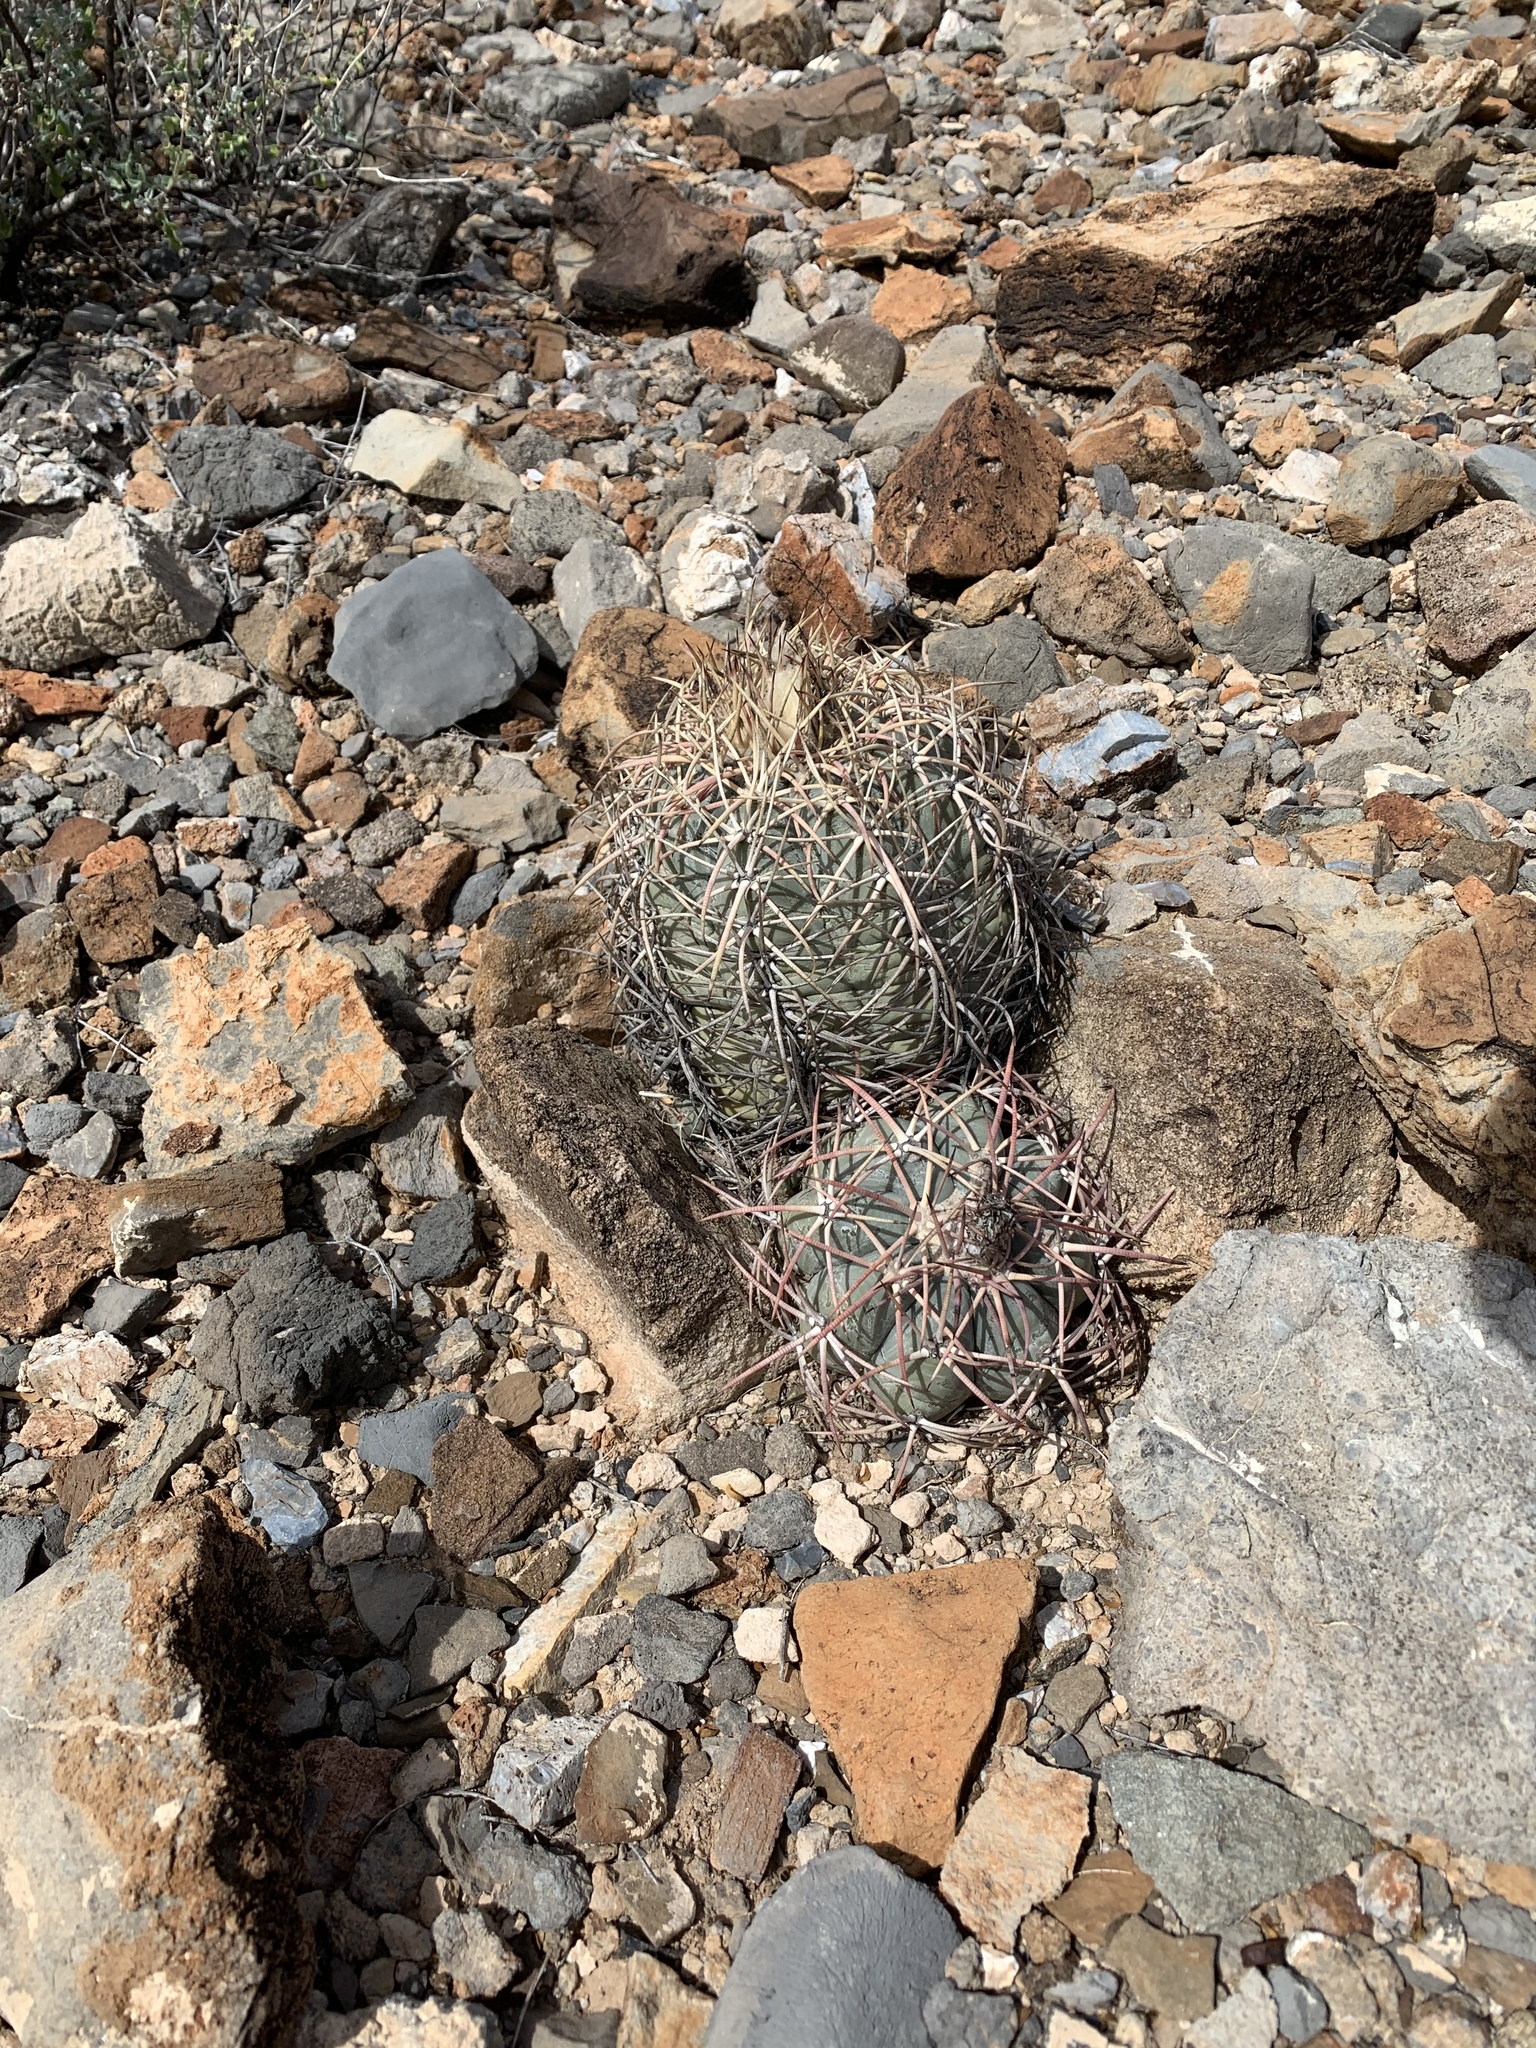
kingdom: Plantae
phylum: Tracheophyta
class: Magnoliopsida
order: Caryophyllales
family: Cactaceae
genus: Echinocactus
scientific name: Echinocactus horizonthalonius
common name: Devilshead
